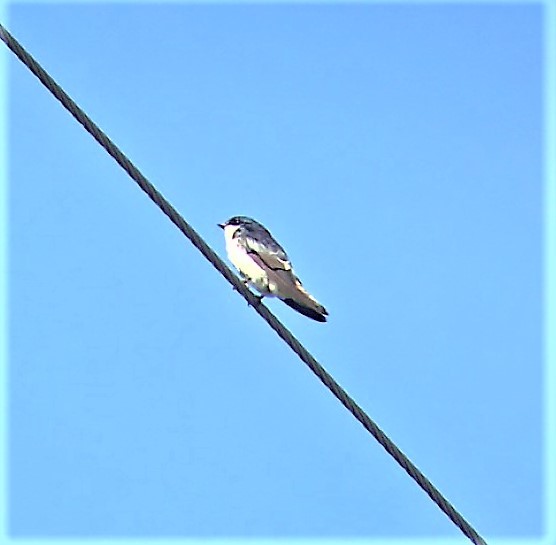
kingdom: Animalia
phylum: Chordata
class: Aves
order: Passeriformes
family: Hirundinidae
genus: Tachycineta
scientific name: Tachycineta bicolor
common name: Tree swallow
